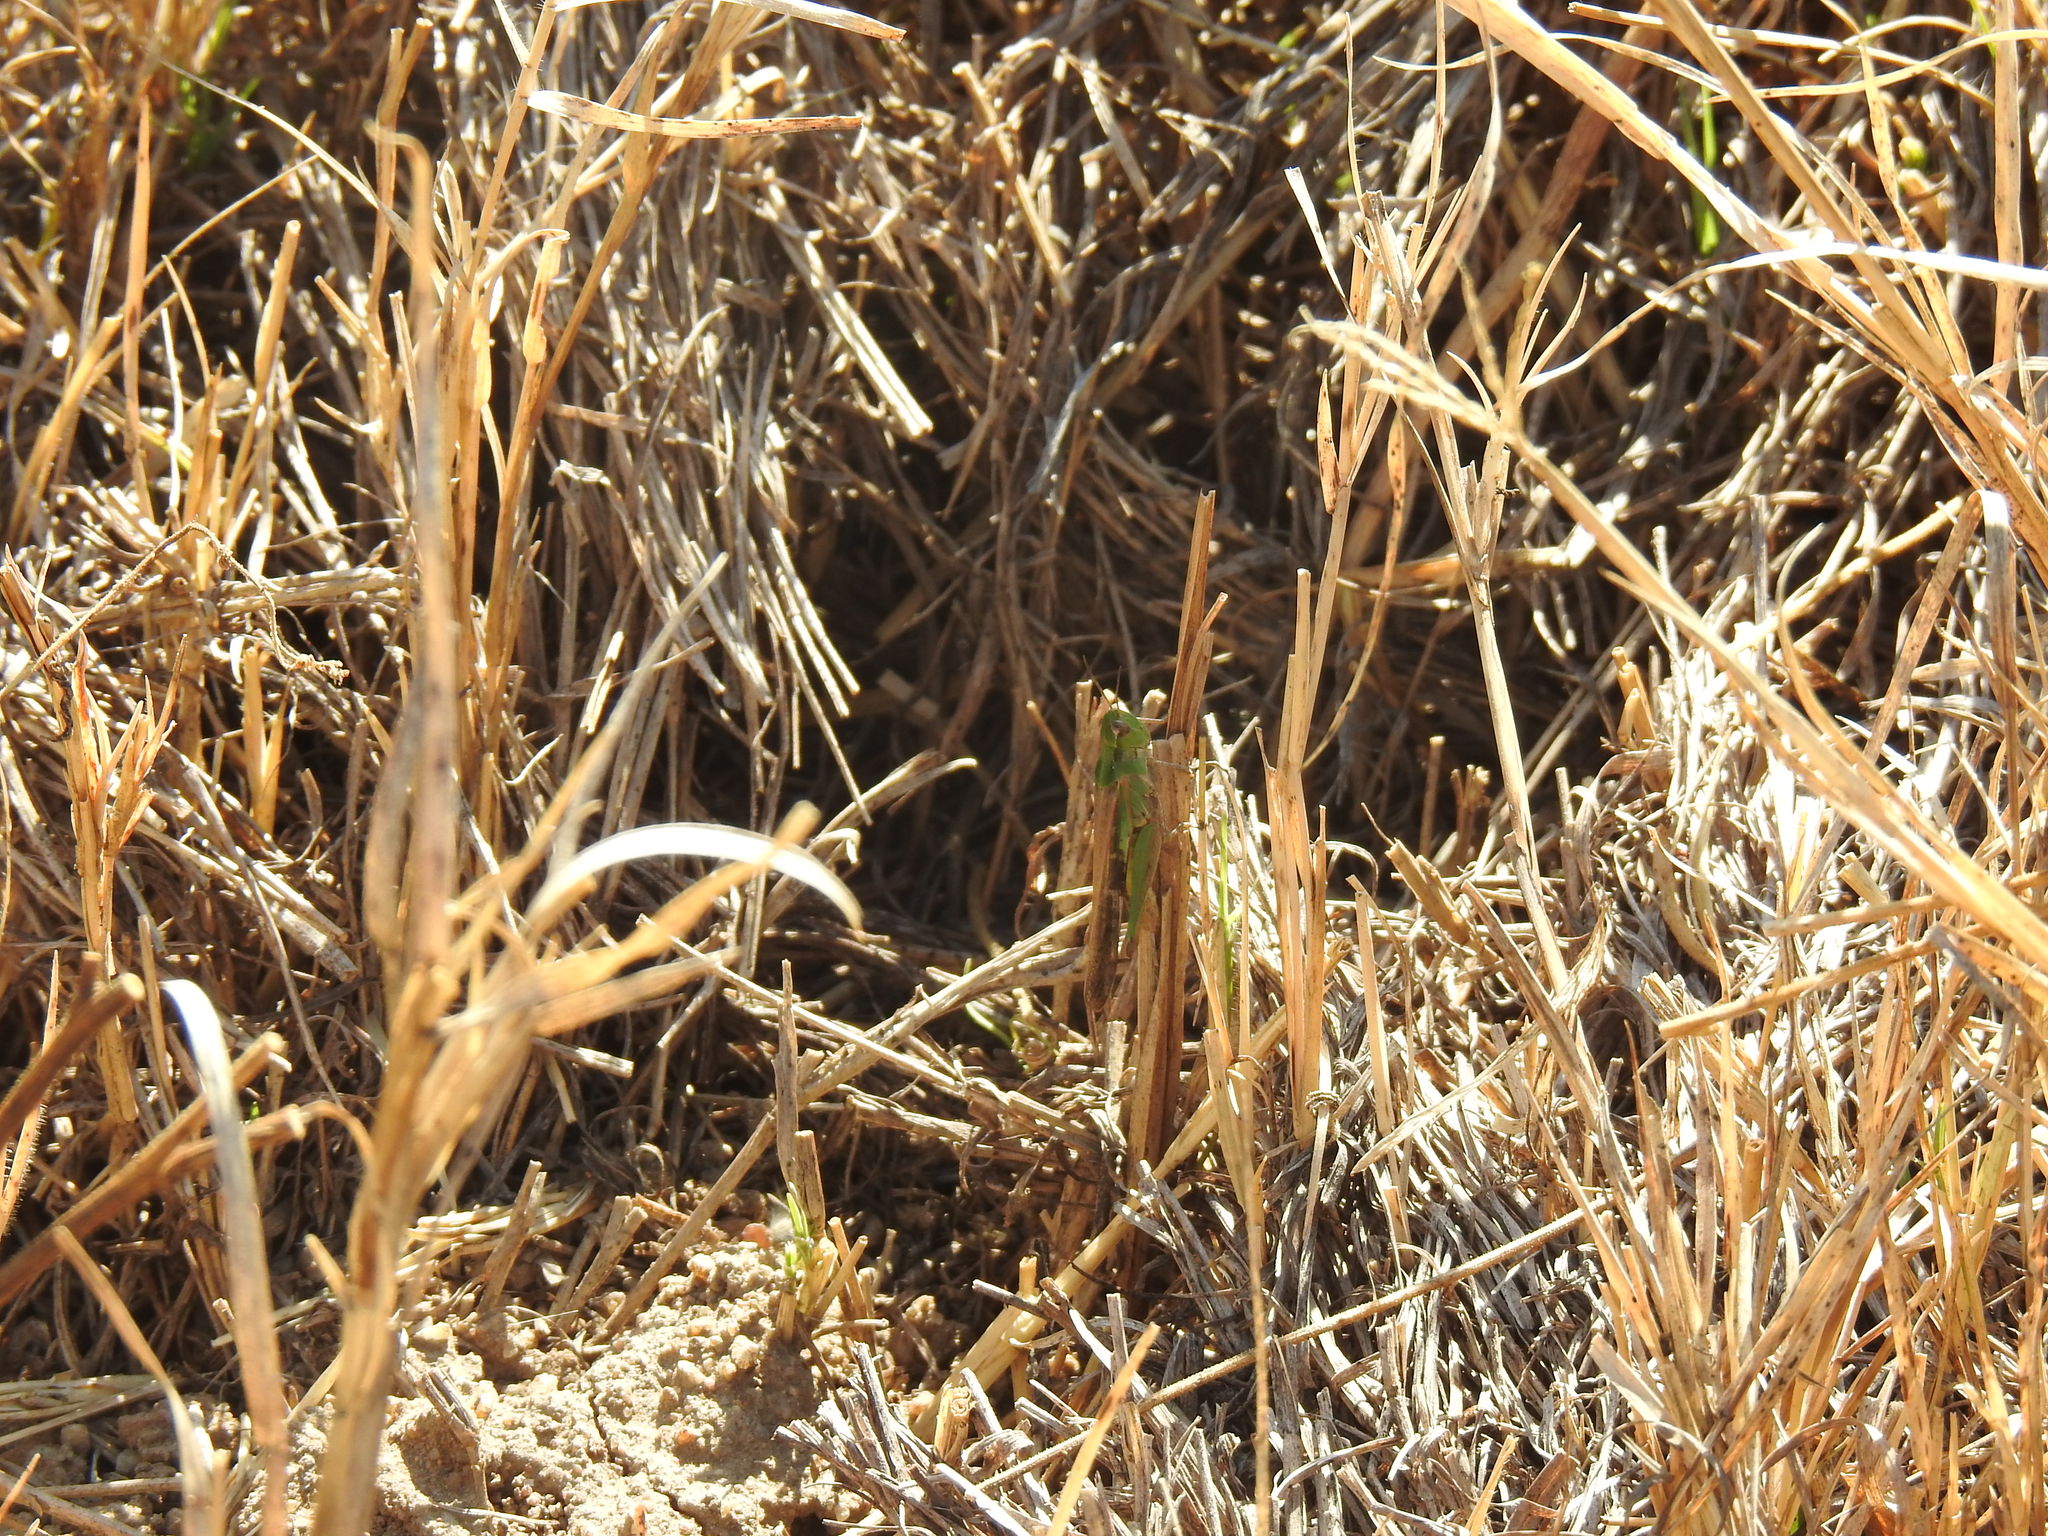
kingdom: Animalia
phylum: Arthropoda
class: Insecta
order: Orthoptera
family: Acrididae
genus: Paracinema
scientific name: Paracinema tricolor
